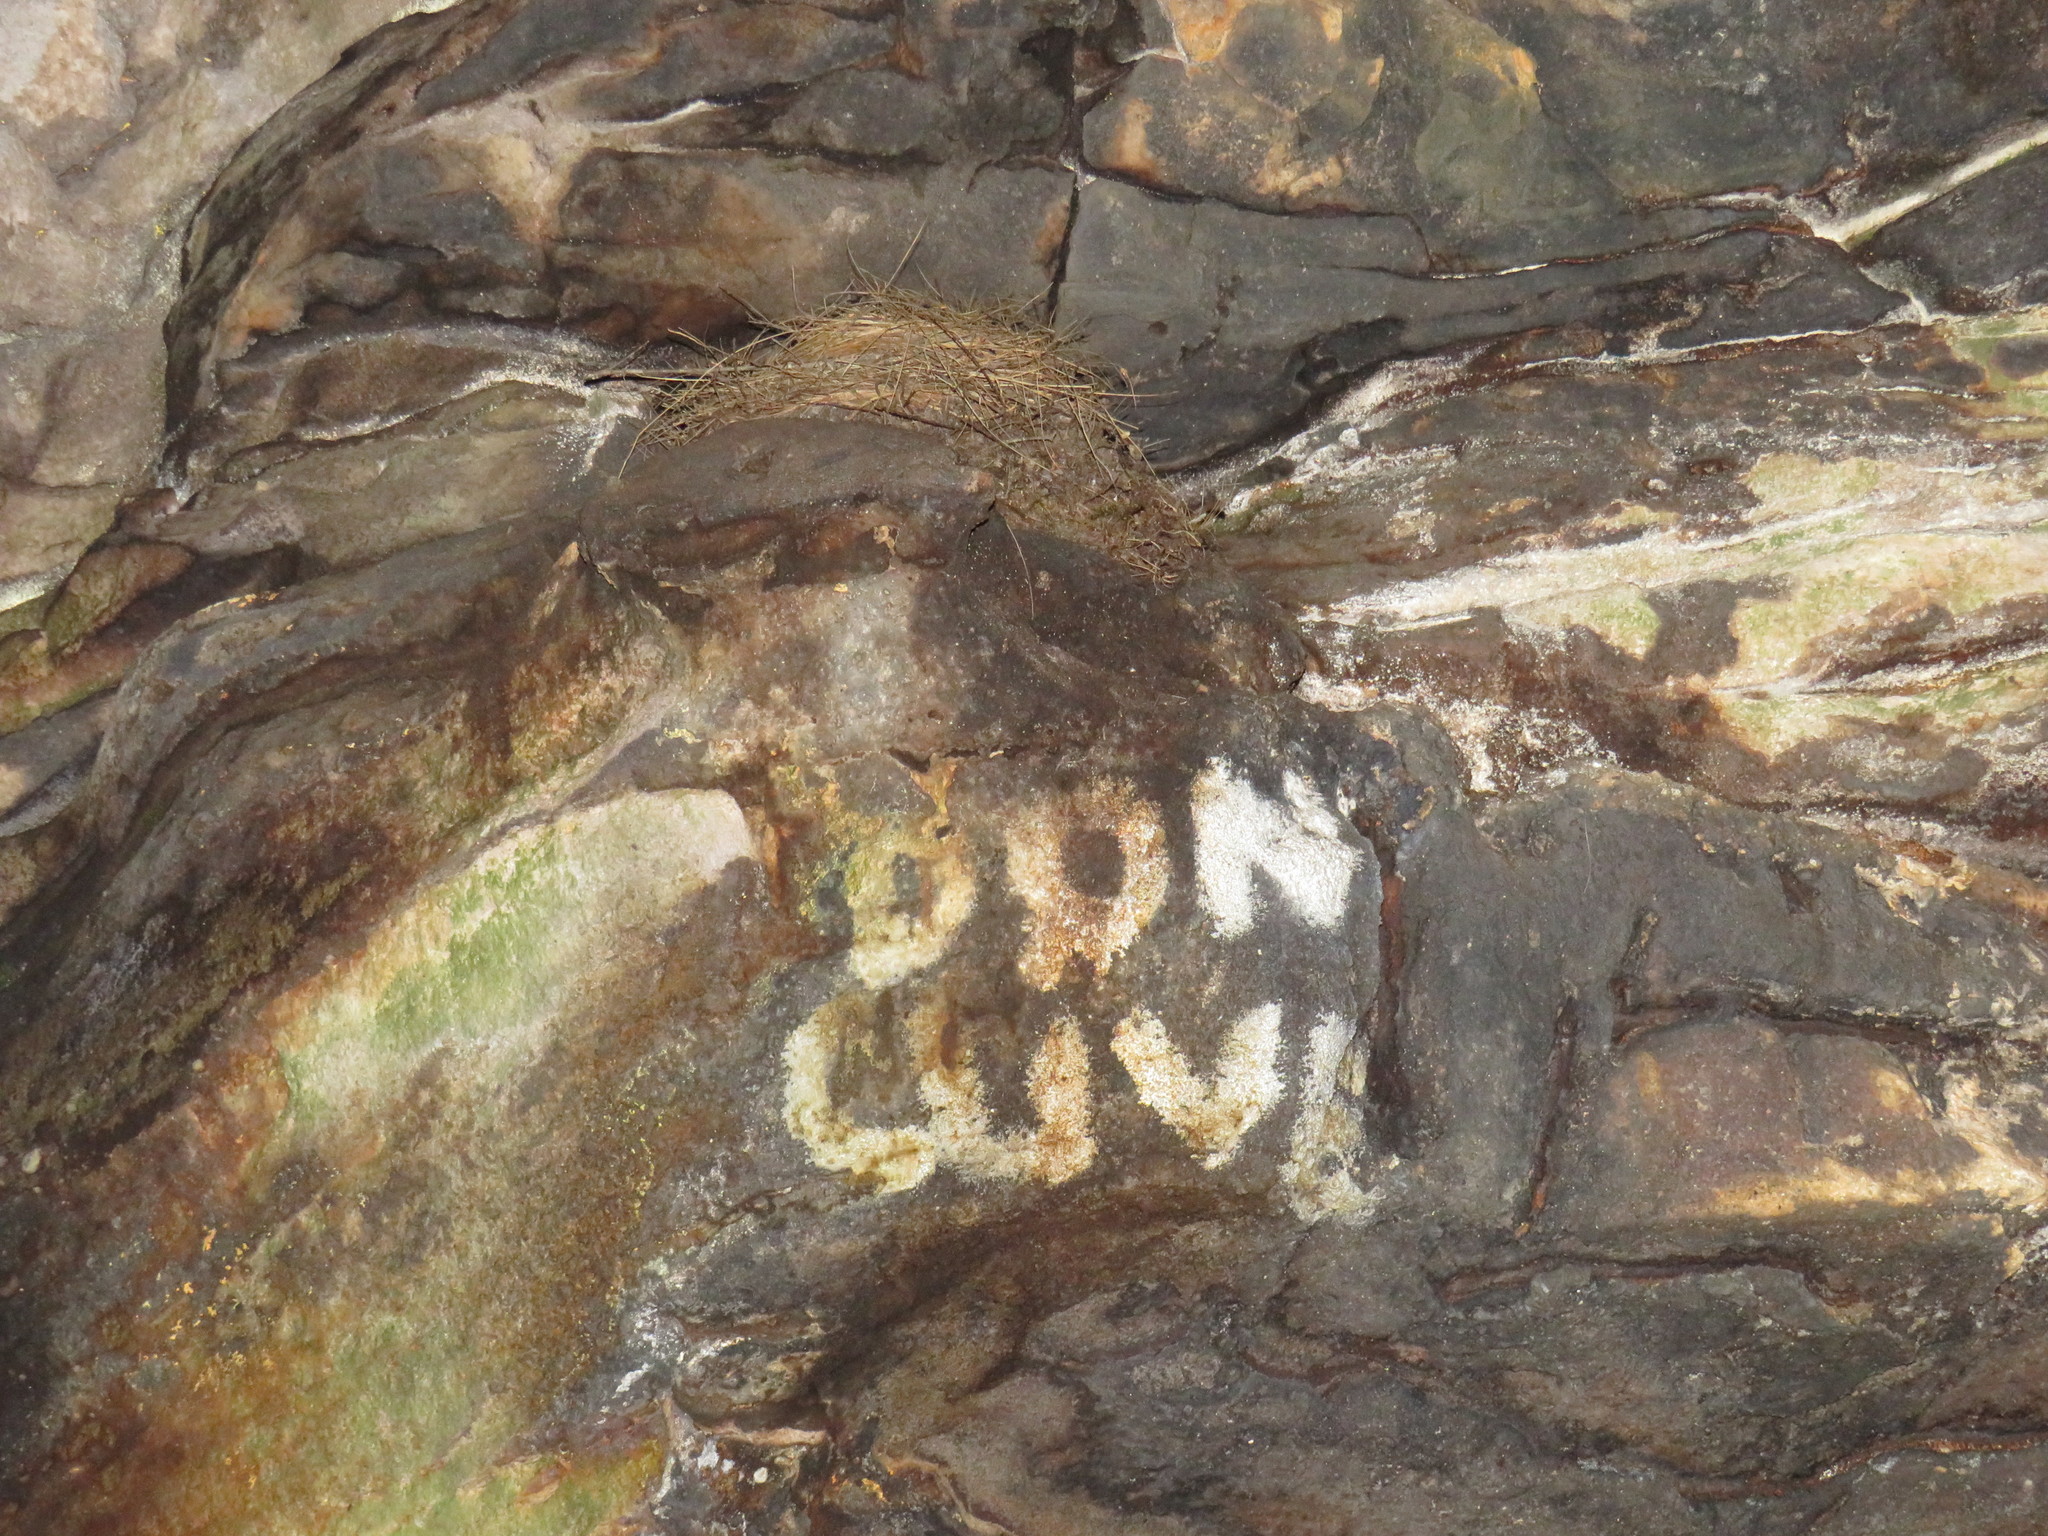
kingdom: Animalia
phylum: Chordata
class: Aves
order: Passeriformes
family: Sturnidae
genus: Onychognathus
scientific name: Onychognathus morio
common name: Red-winged starling
